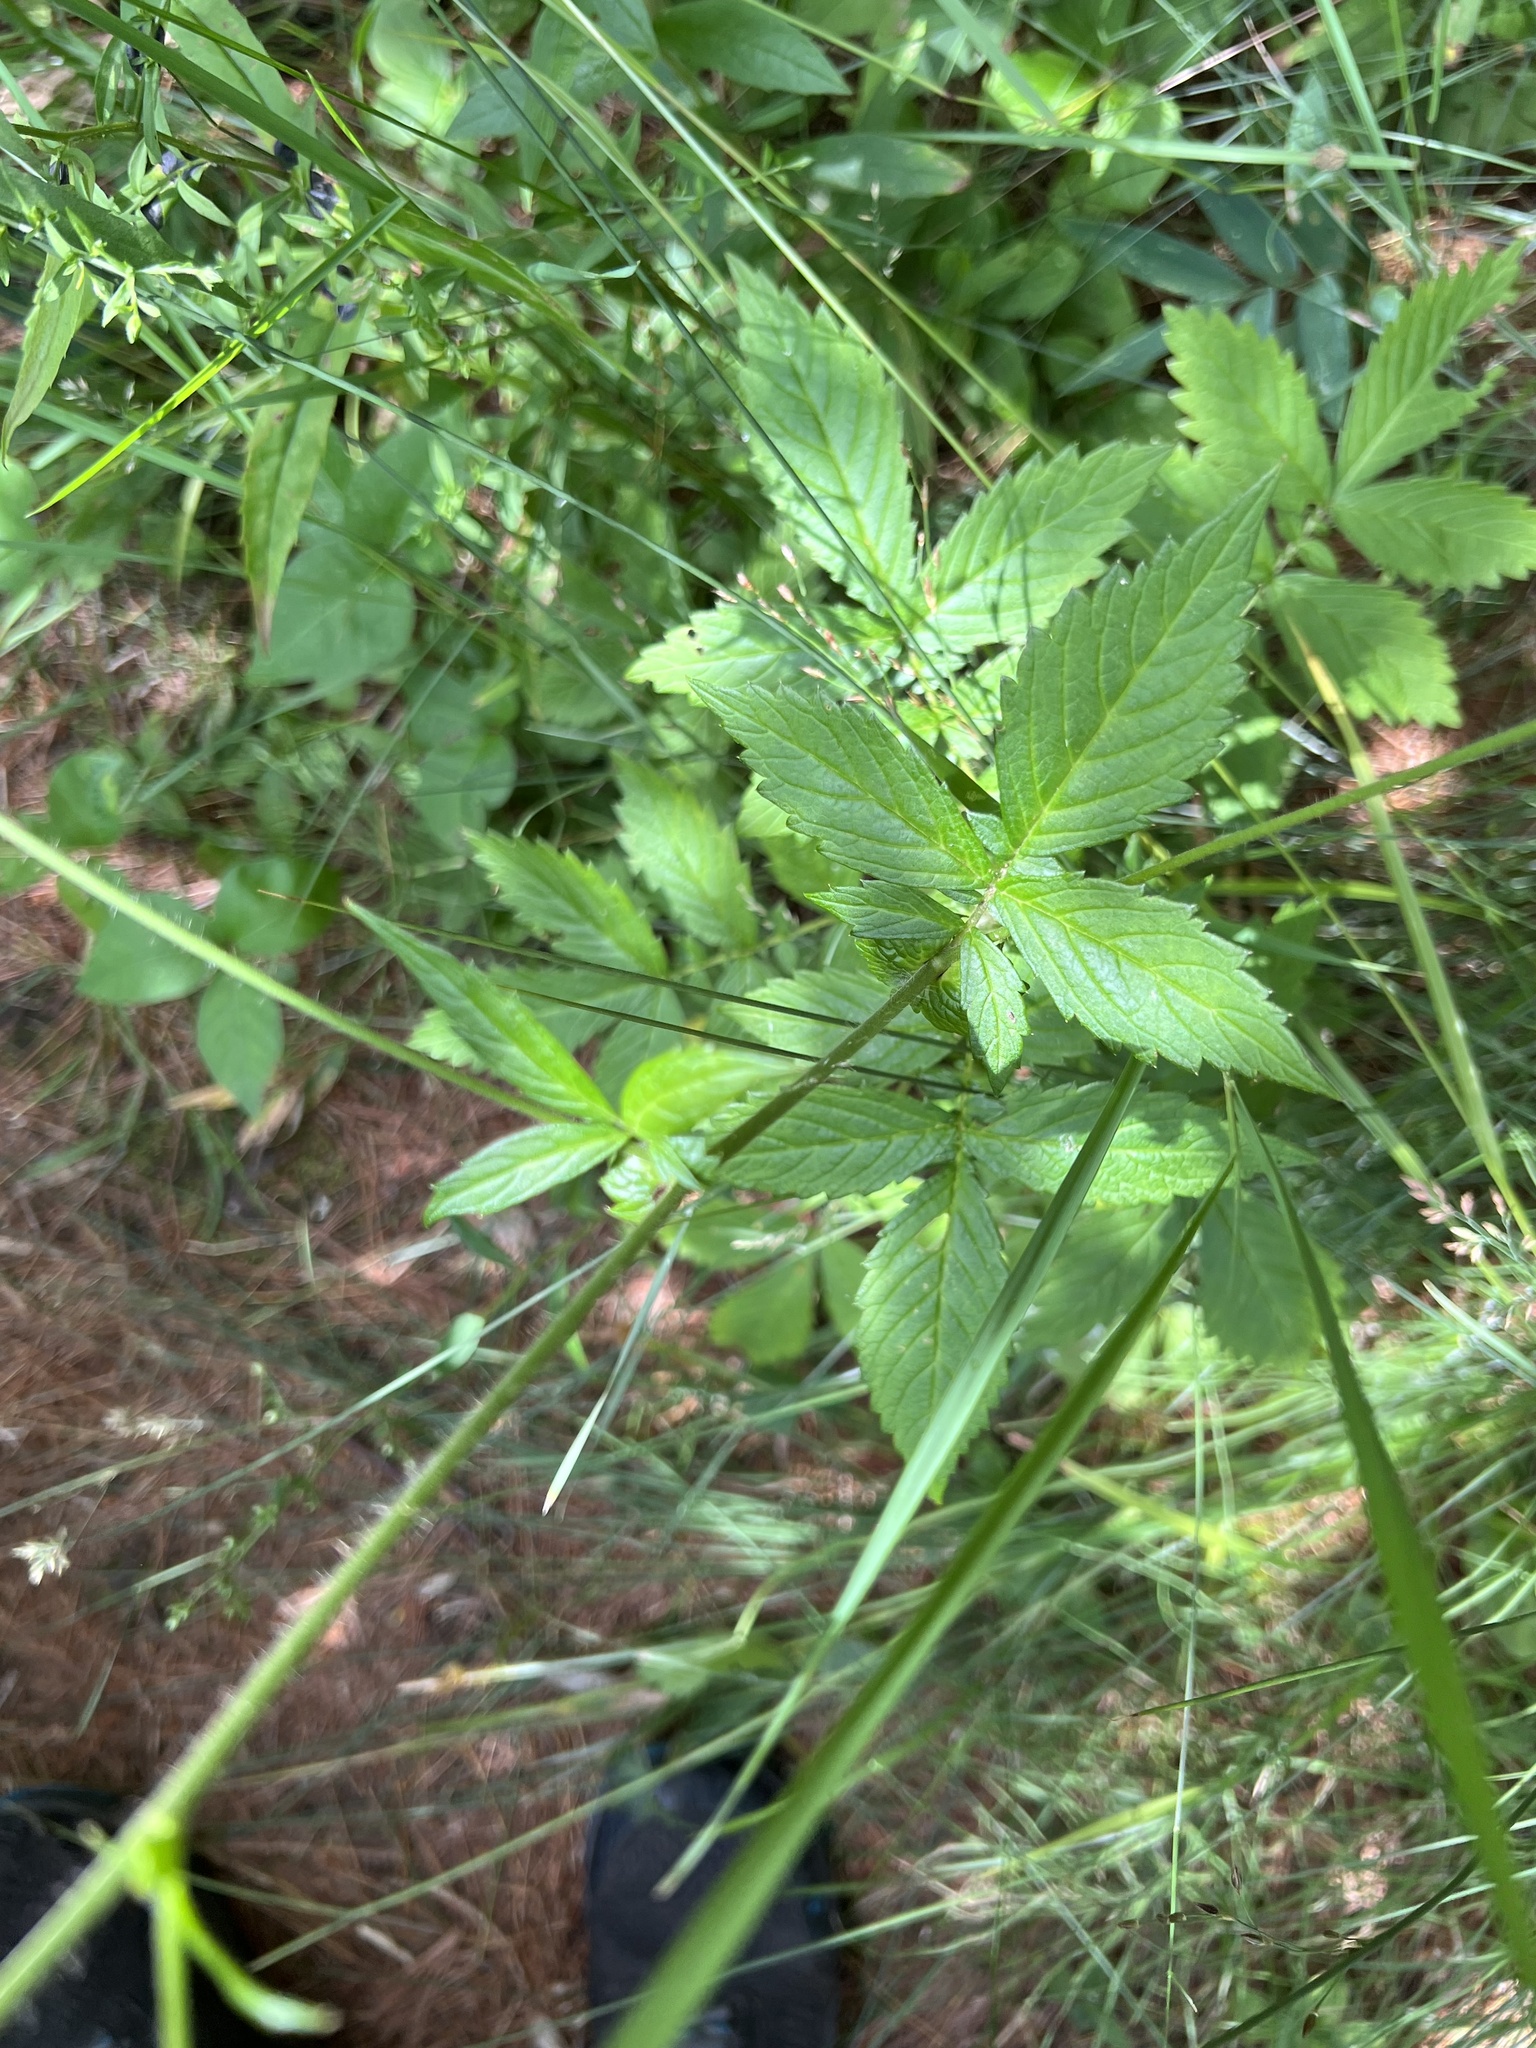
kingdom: Plantae
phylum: Tracheophyta
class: Magnoliopsida
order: Rosales
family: Rosaceae
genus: Agrimonia
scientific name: Agrimonia gryposepala
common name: Common agrimony
